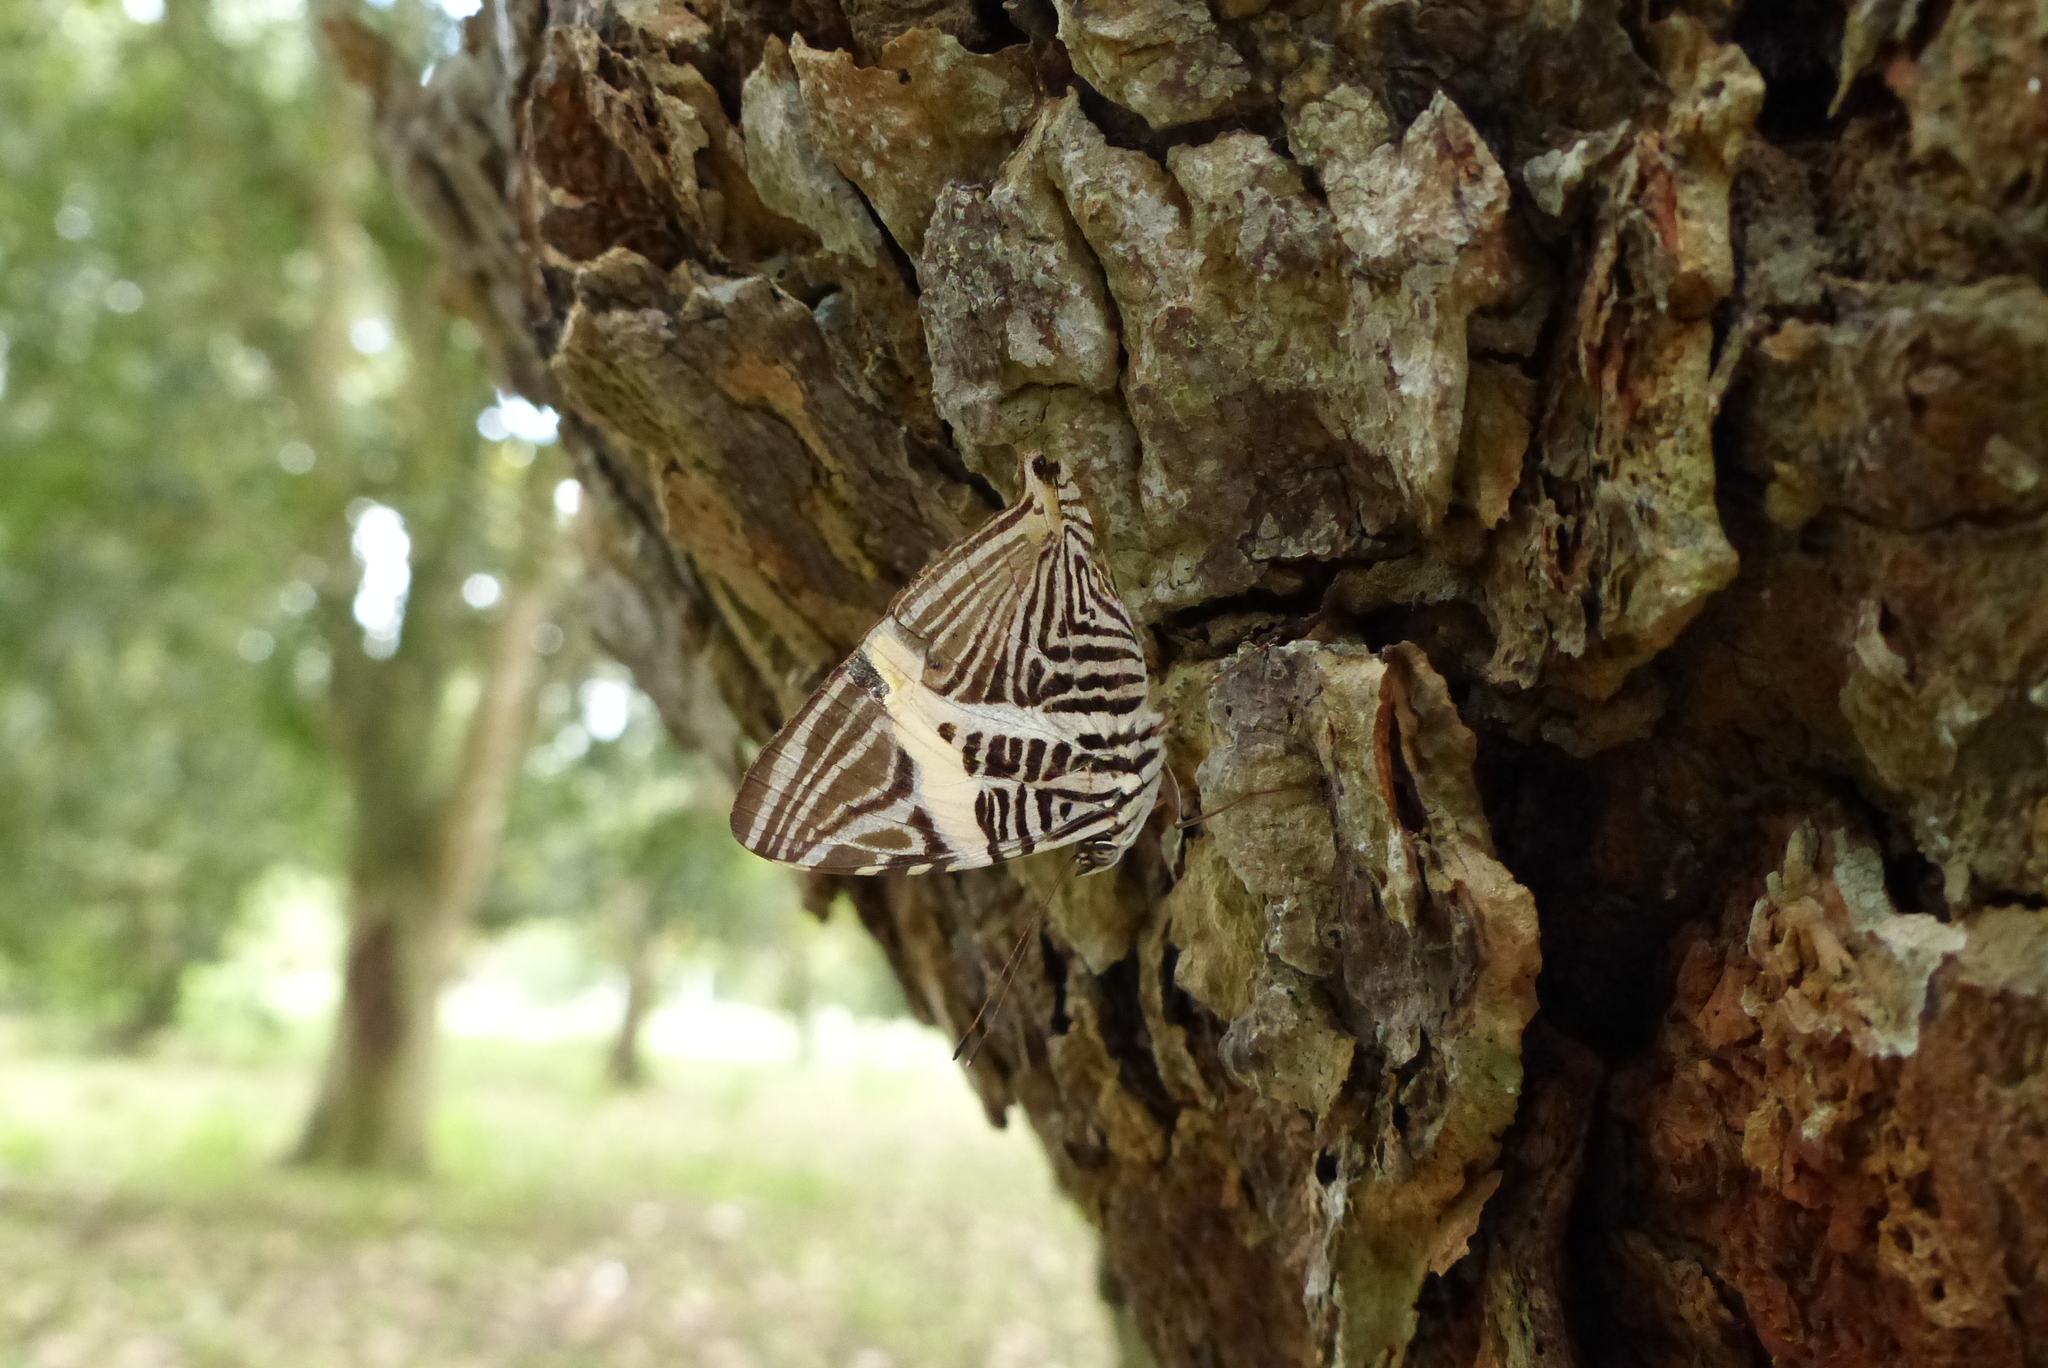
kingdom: Animalia
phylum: Arthropoda
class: Insecta
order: Lepidoptera
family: Nymphalidae
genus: Colobura
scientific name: Colobura dirce
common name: Dirce beauty
